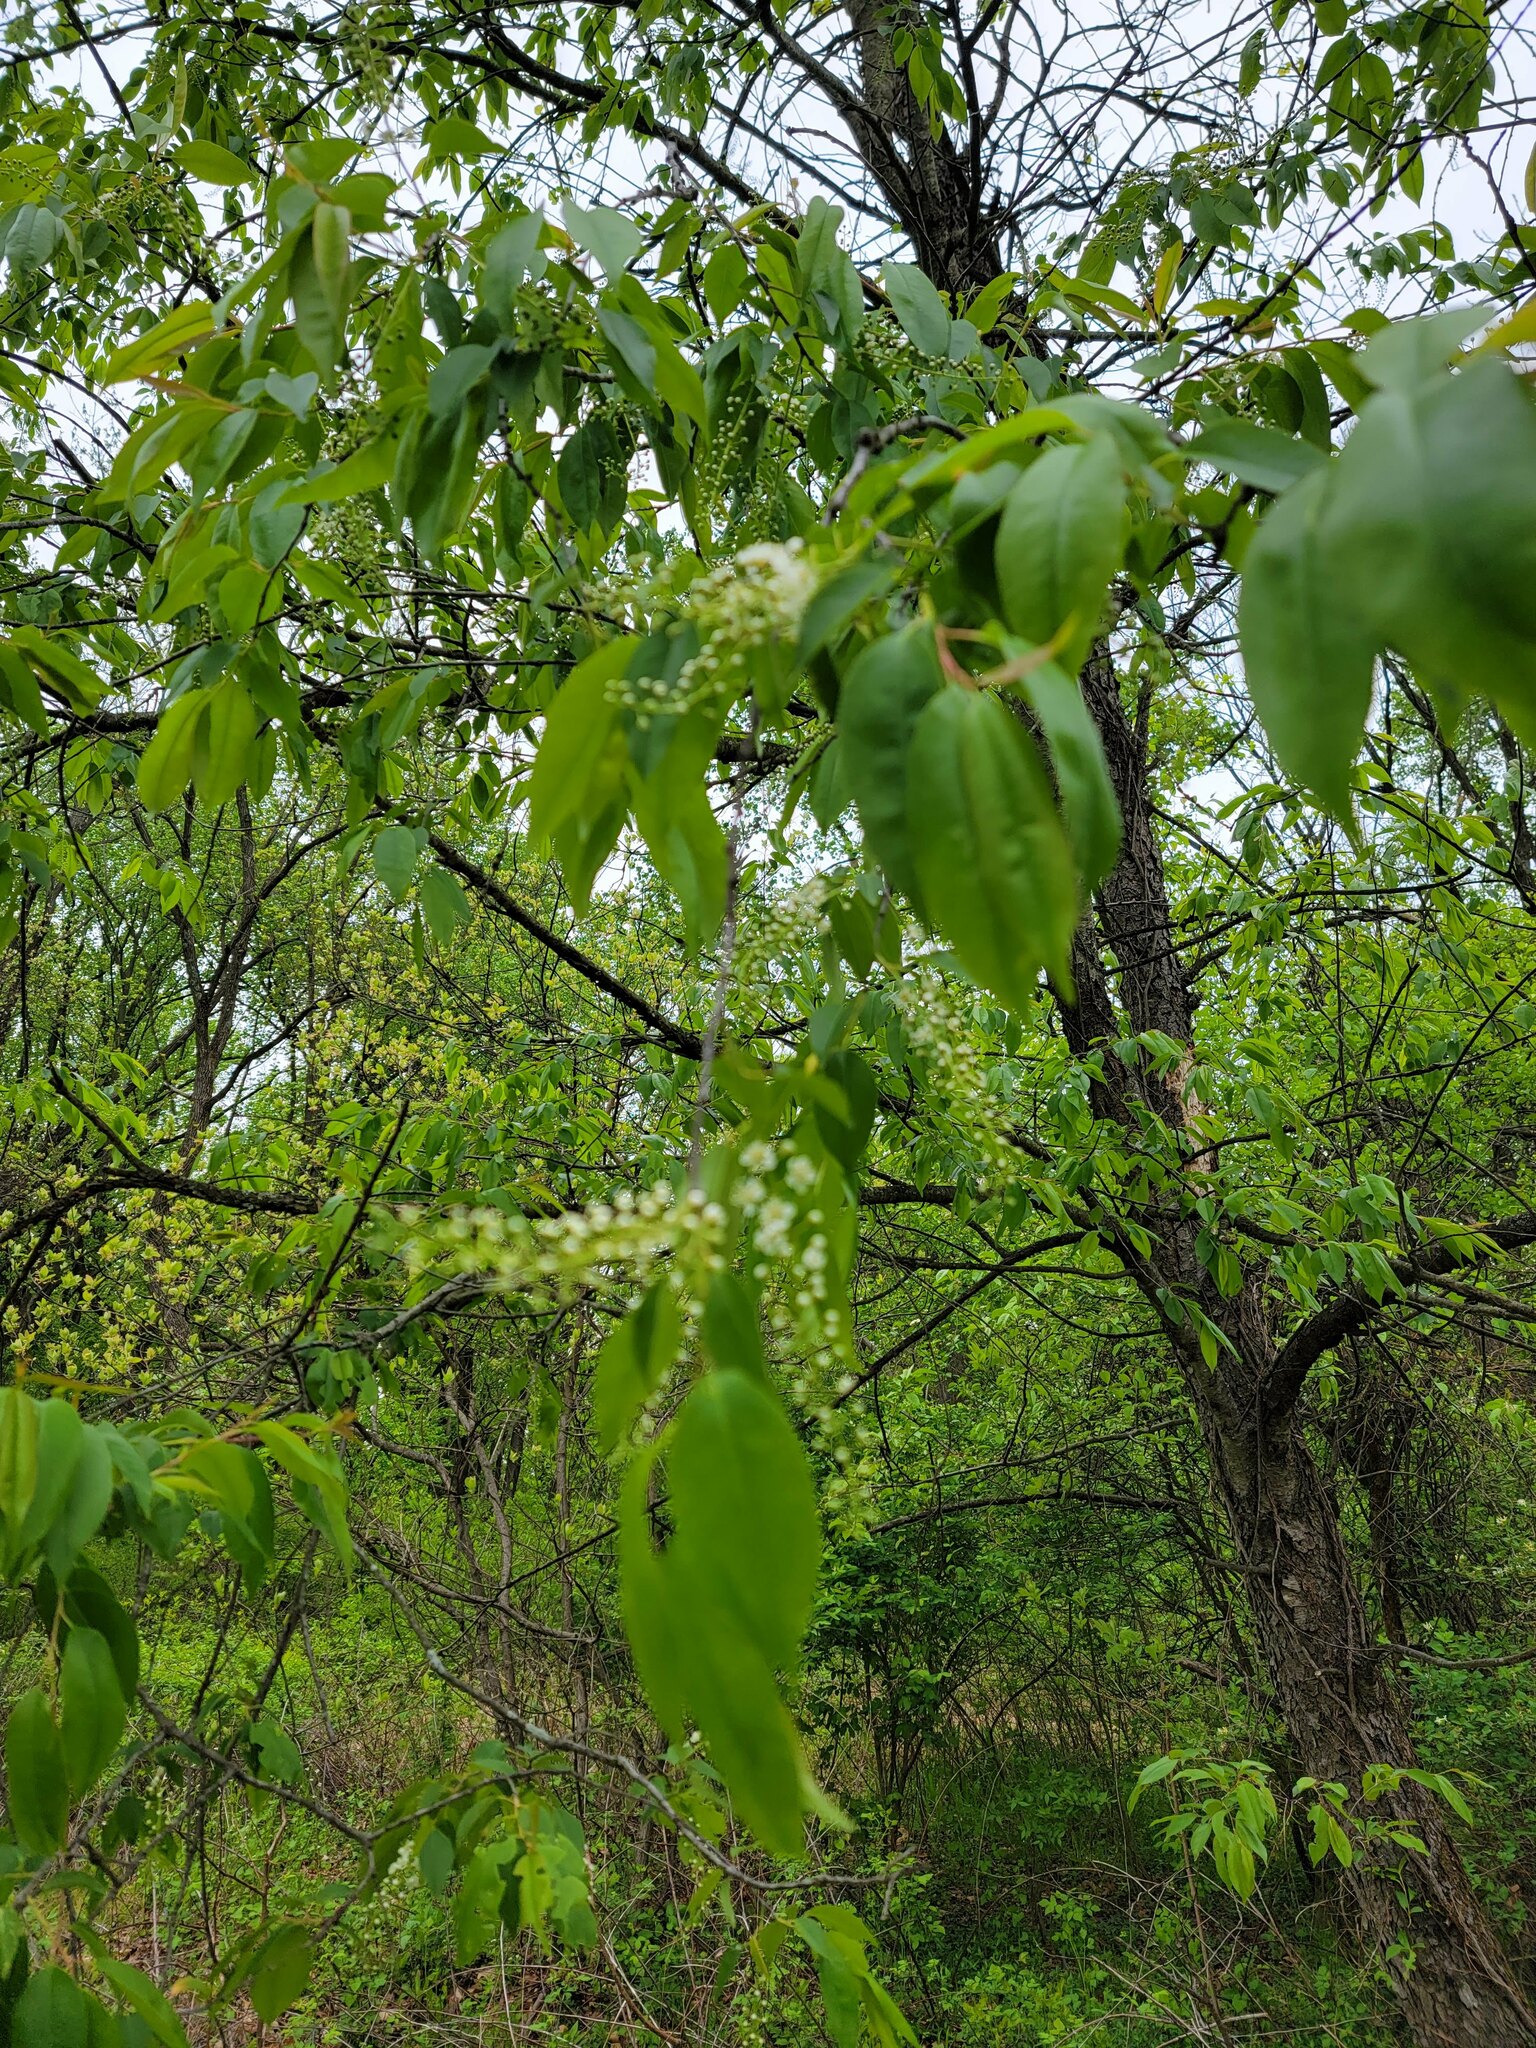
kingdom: Plantae
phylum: Tracheophyta
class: Magnoliopsida
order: Rosales
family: Rosaceae
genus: Prunus
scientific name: Prunus serotina
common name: Black cherry
